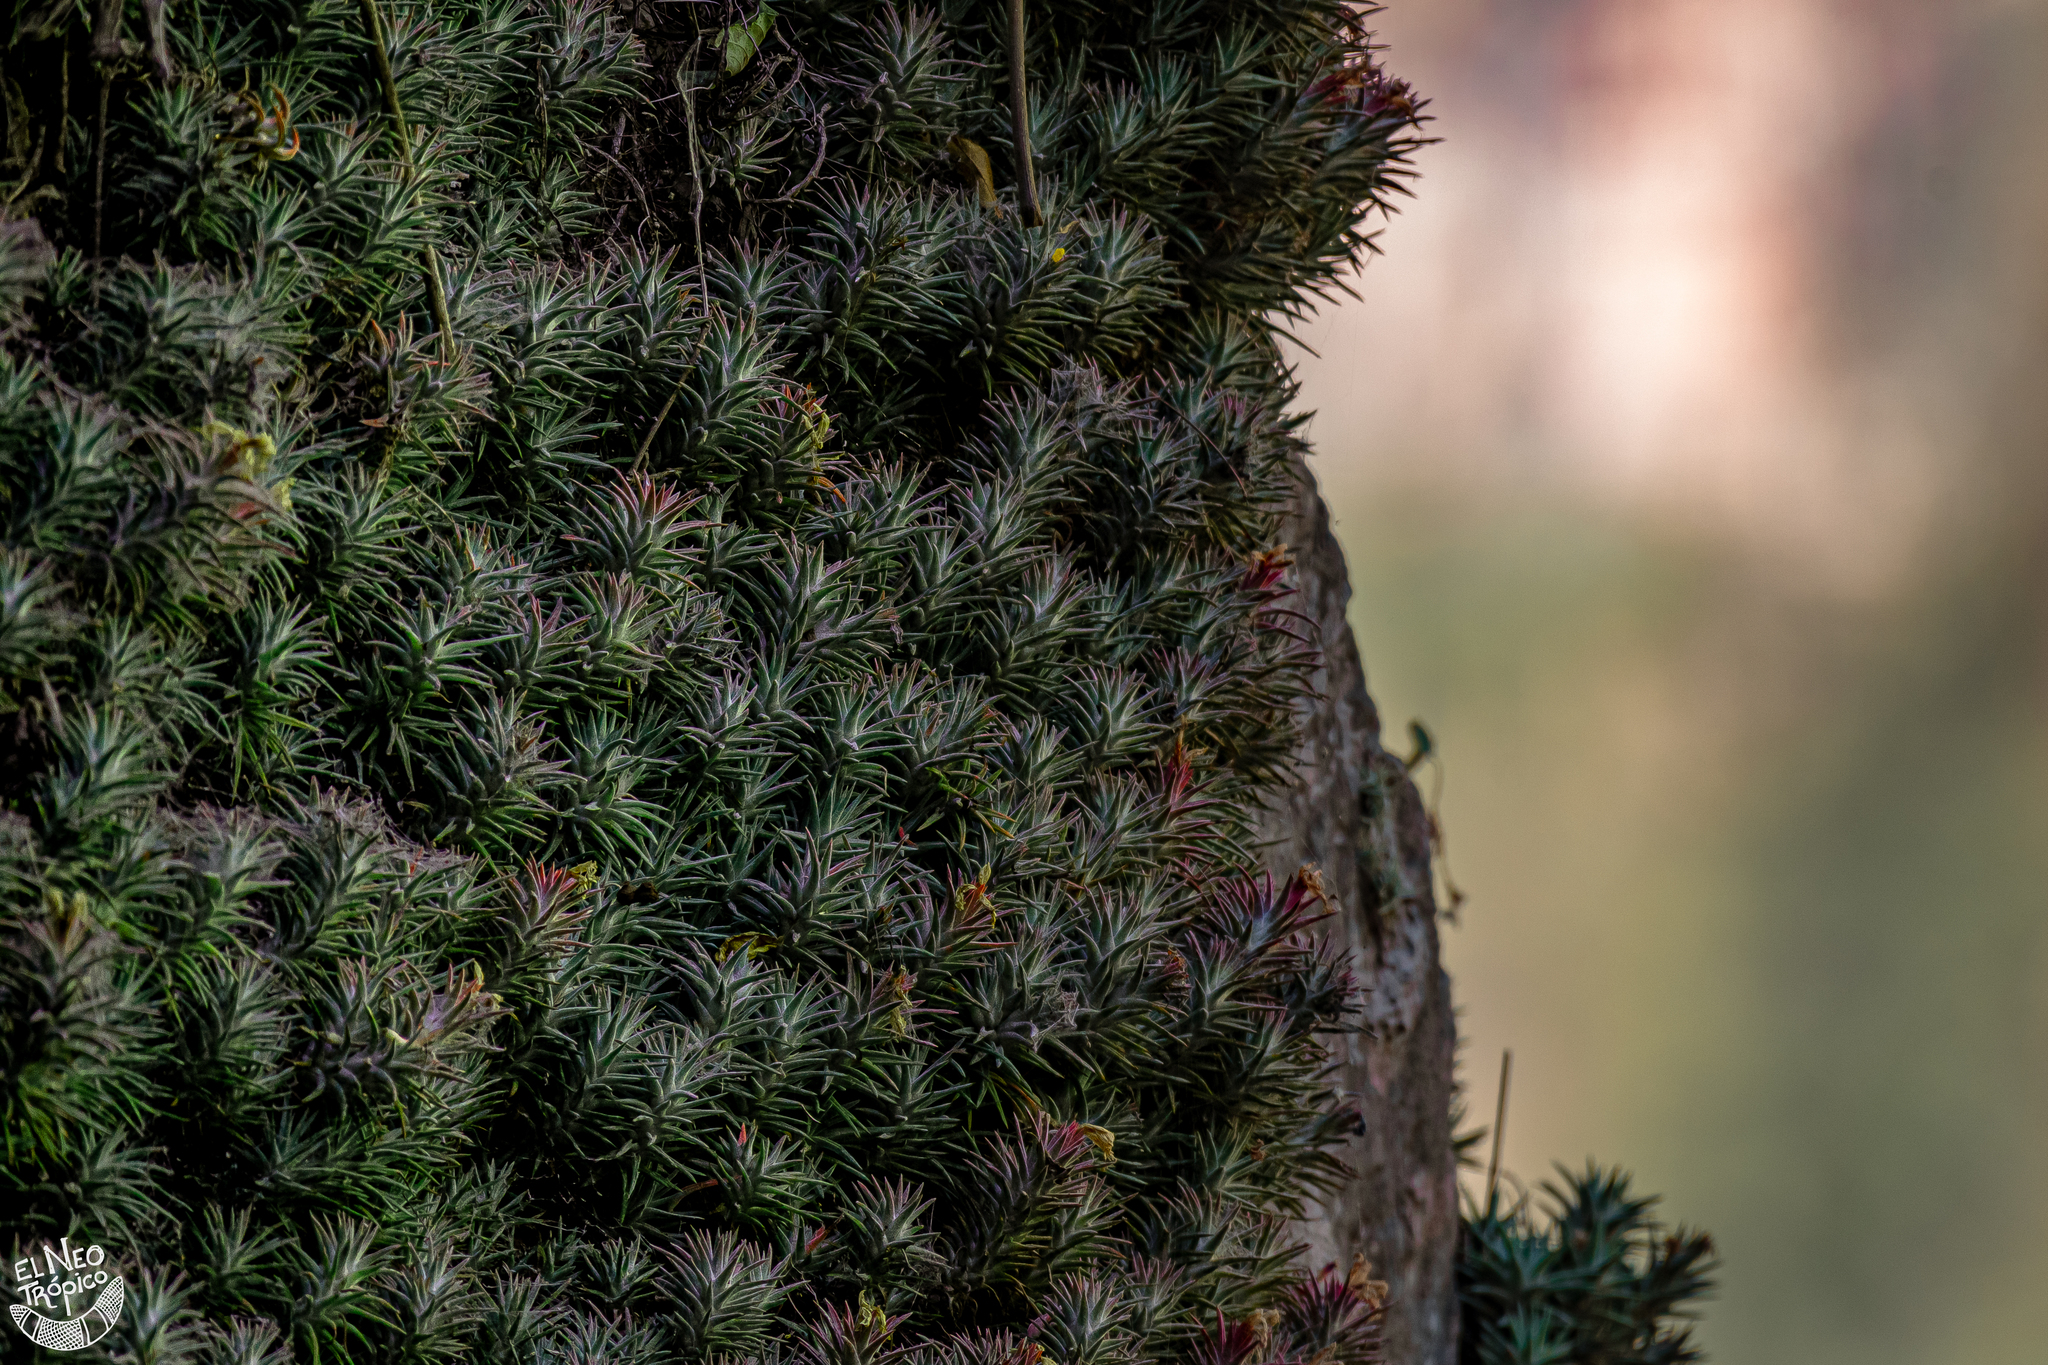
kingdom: Plantae
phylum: Tracheophyta
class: Liliopsida
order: Poales
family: Bromeliaceae
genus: Tillandsia
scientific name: Tillandsia ionantha
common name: Sky plant
